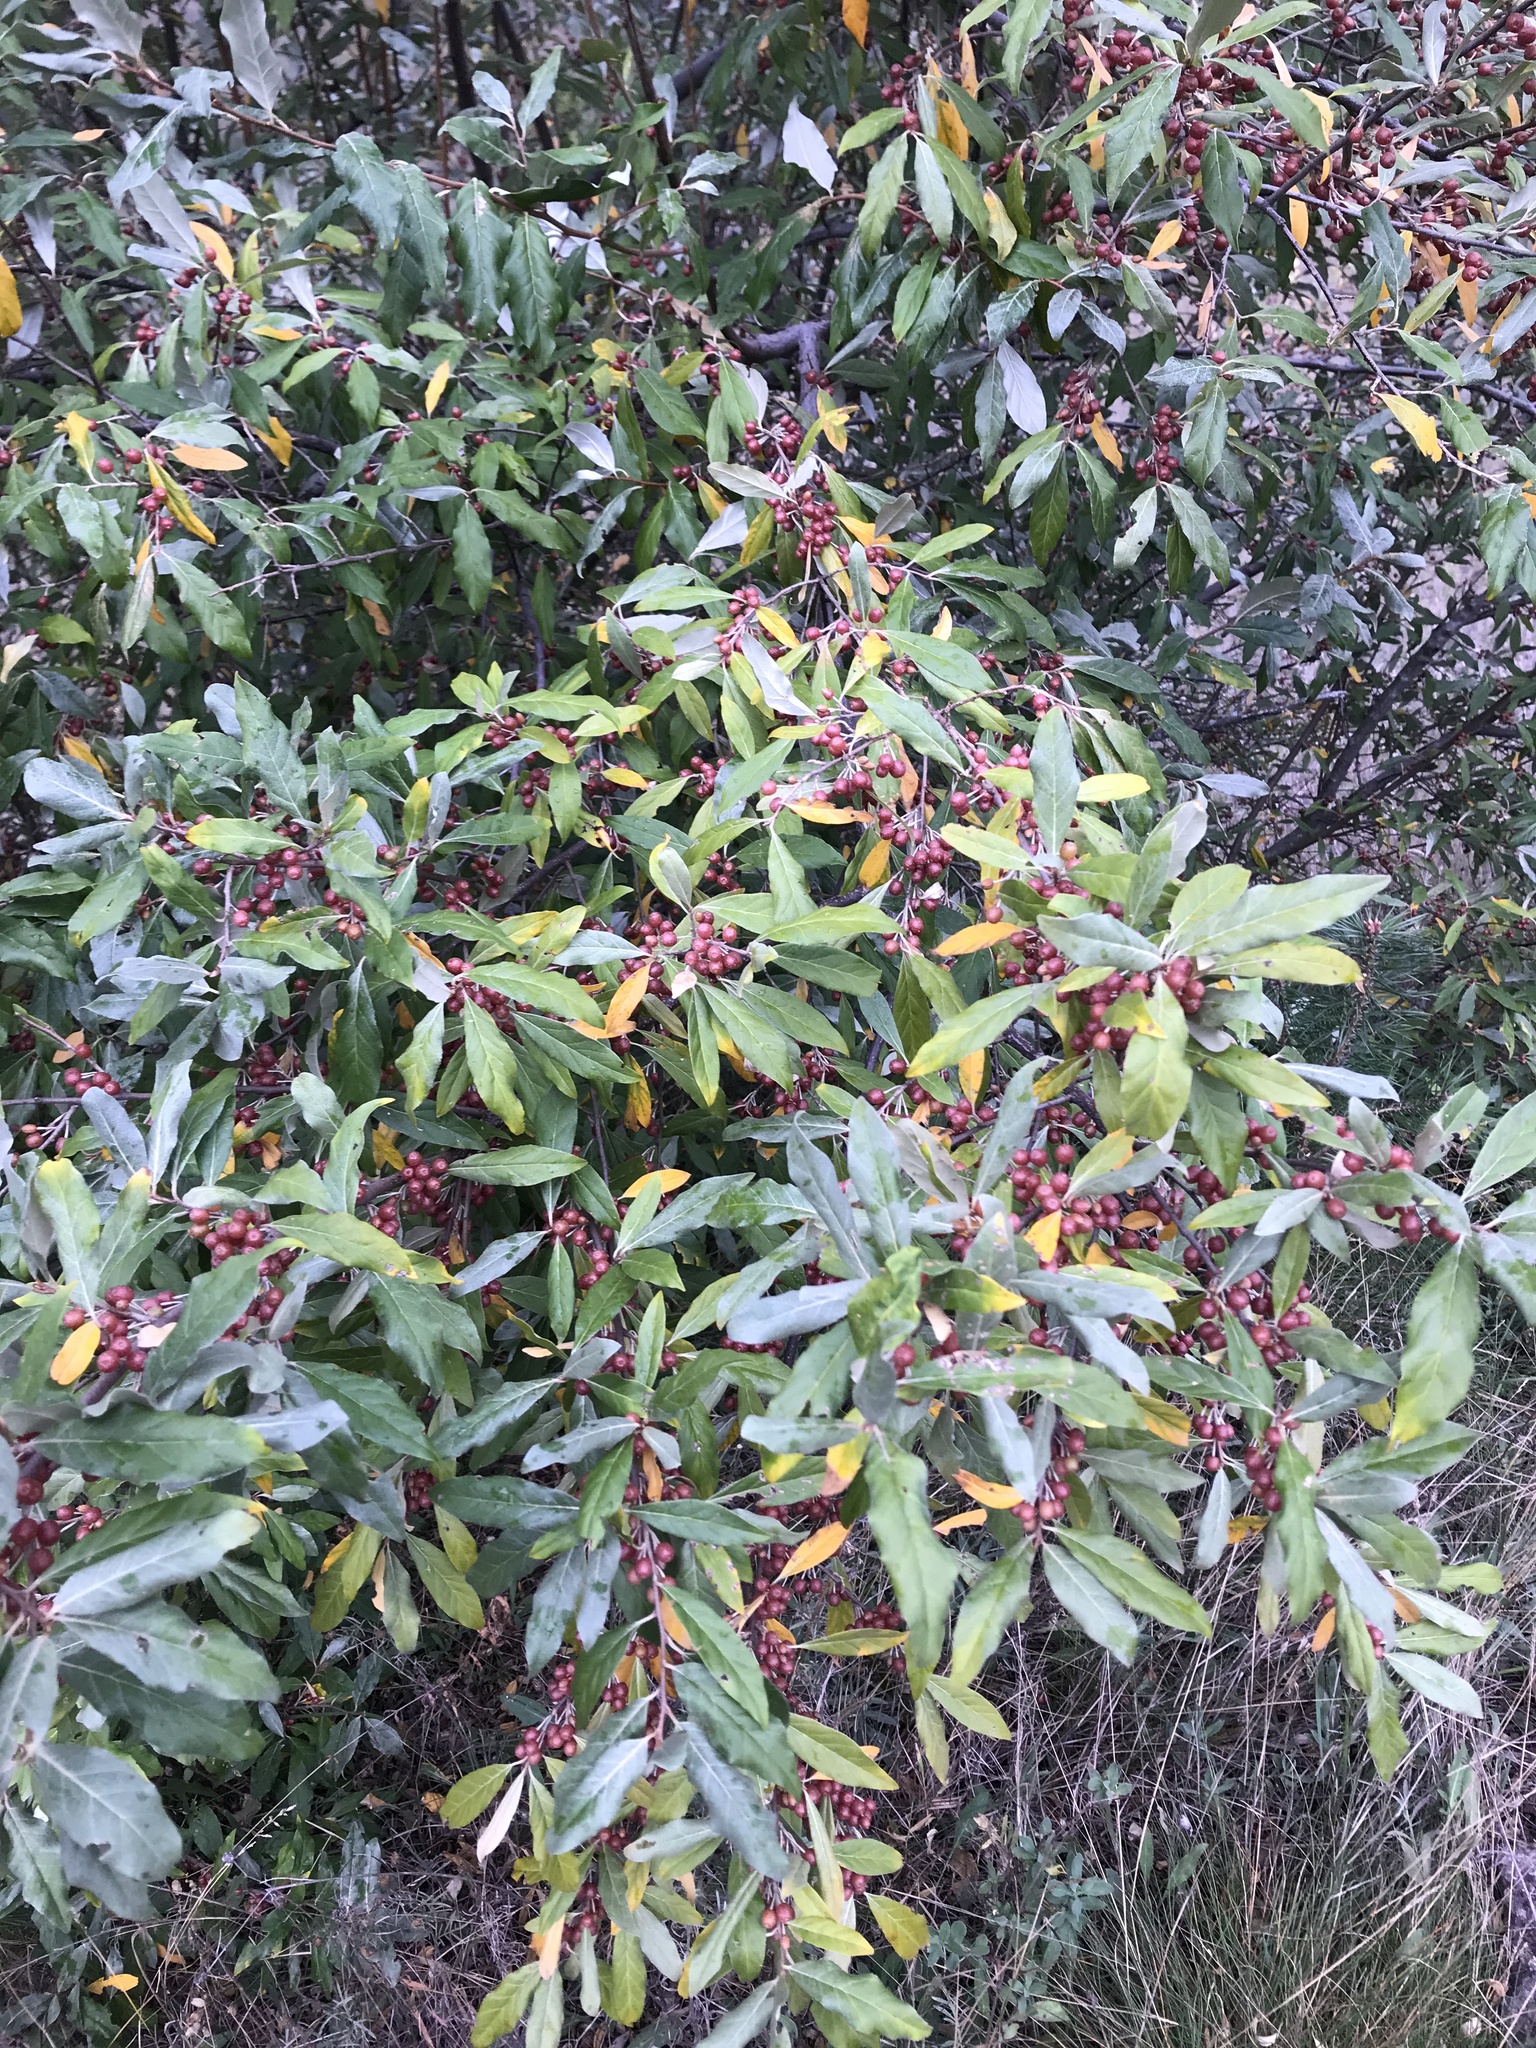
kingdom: Plantae
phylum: Tracheophyta
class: Magnoliopsida
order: Rosales
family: Elaeagnaceae
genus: Elaeagnus
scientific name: Elaeagnus umbellata
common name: Autumn olive
